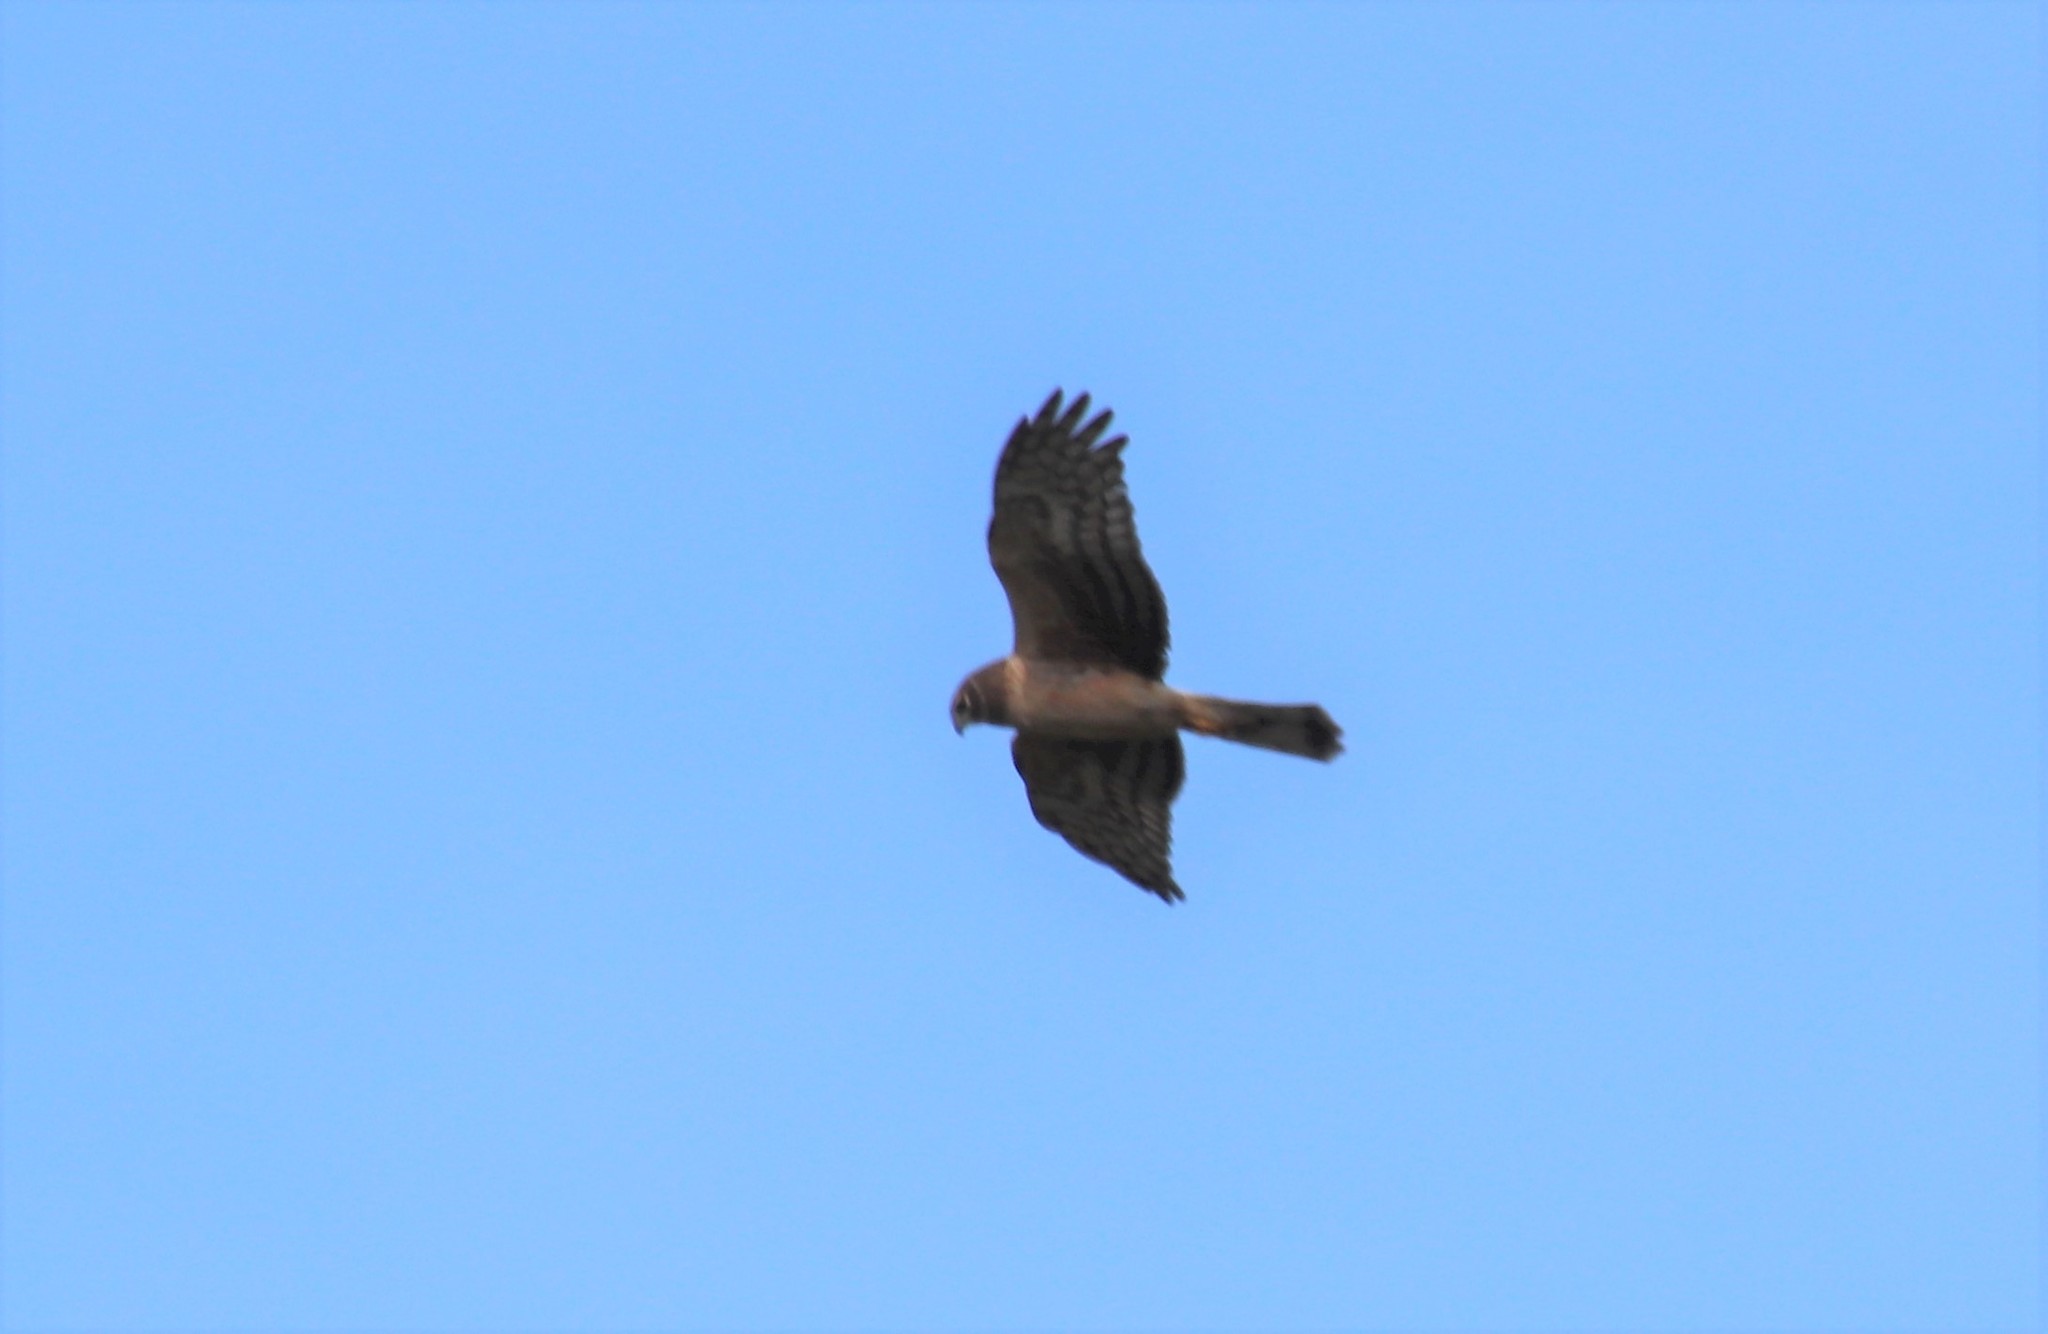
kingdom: Animalia
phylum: Chordata
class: Aves
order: Accipitriformes
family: Accipitridae
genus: Circus
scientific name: Circus cyaneus
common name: Hen harrier
